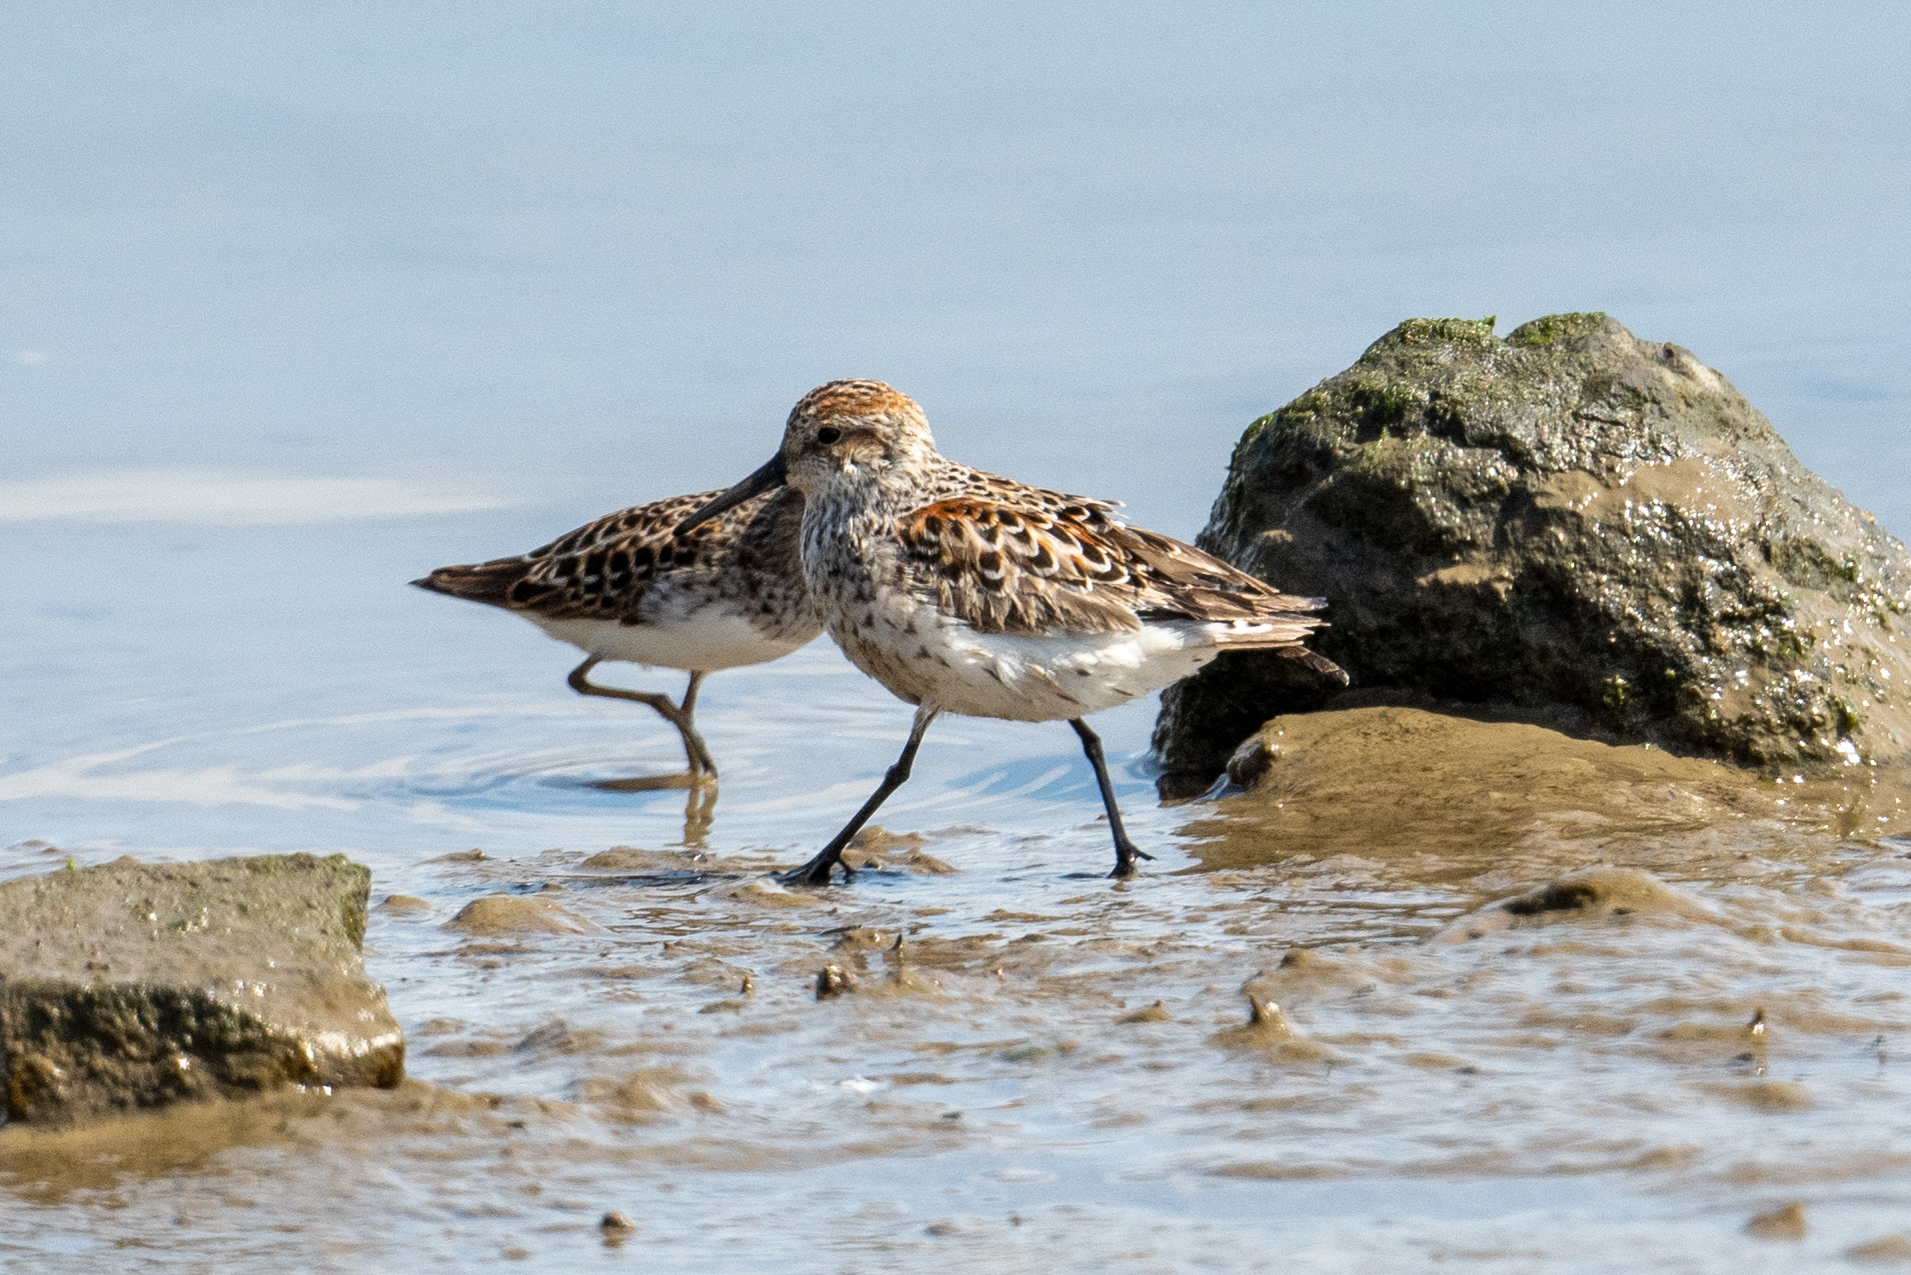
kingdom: Animalia
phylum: Chordata
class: Aves
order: Charadriiformes
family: Scolopacidae
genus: Calidris
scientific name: Calidris mauri
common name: Western sandpiper
